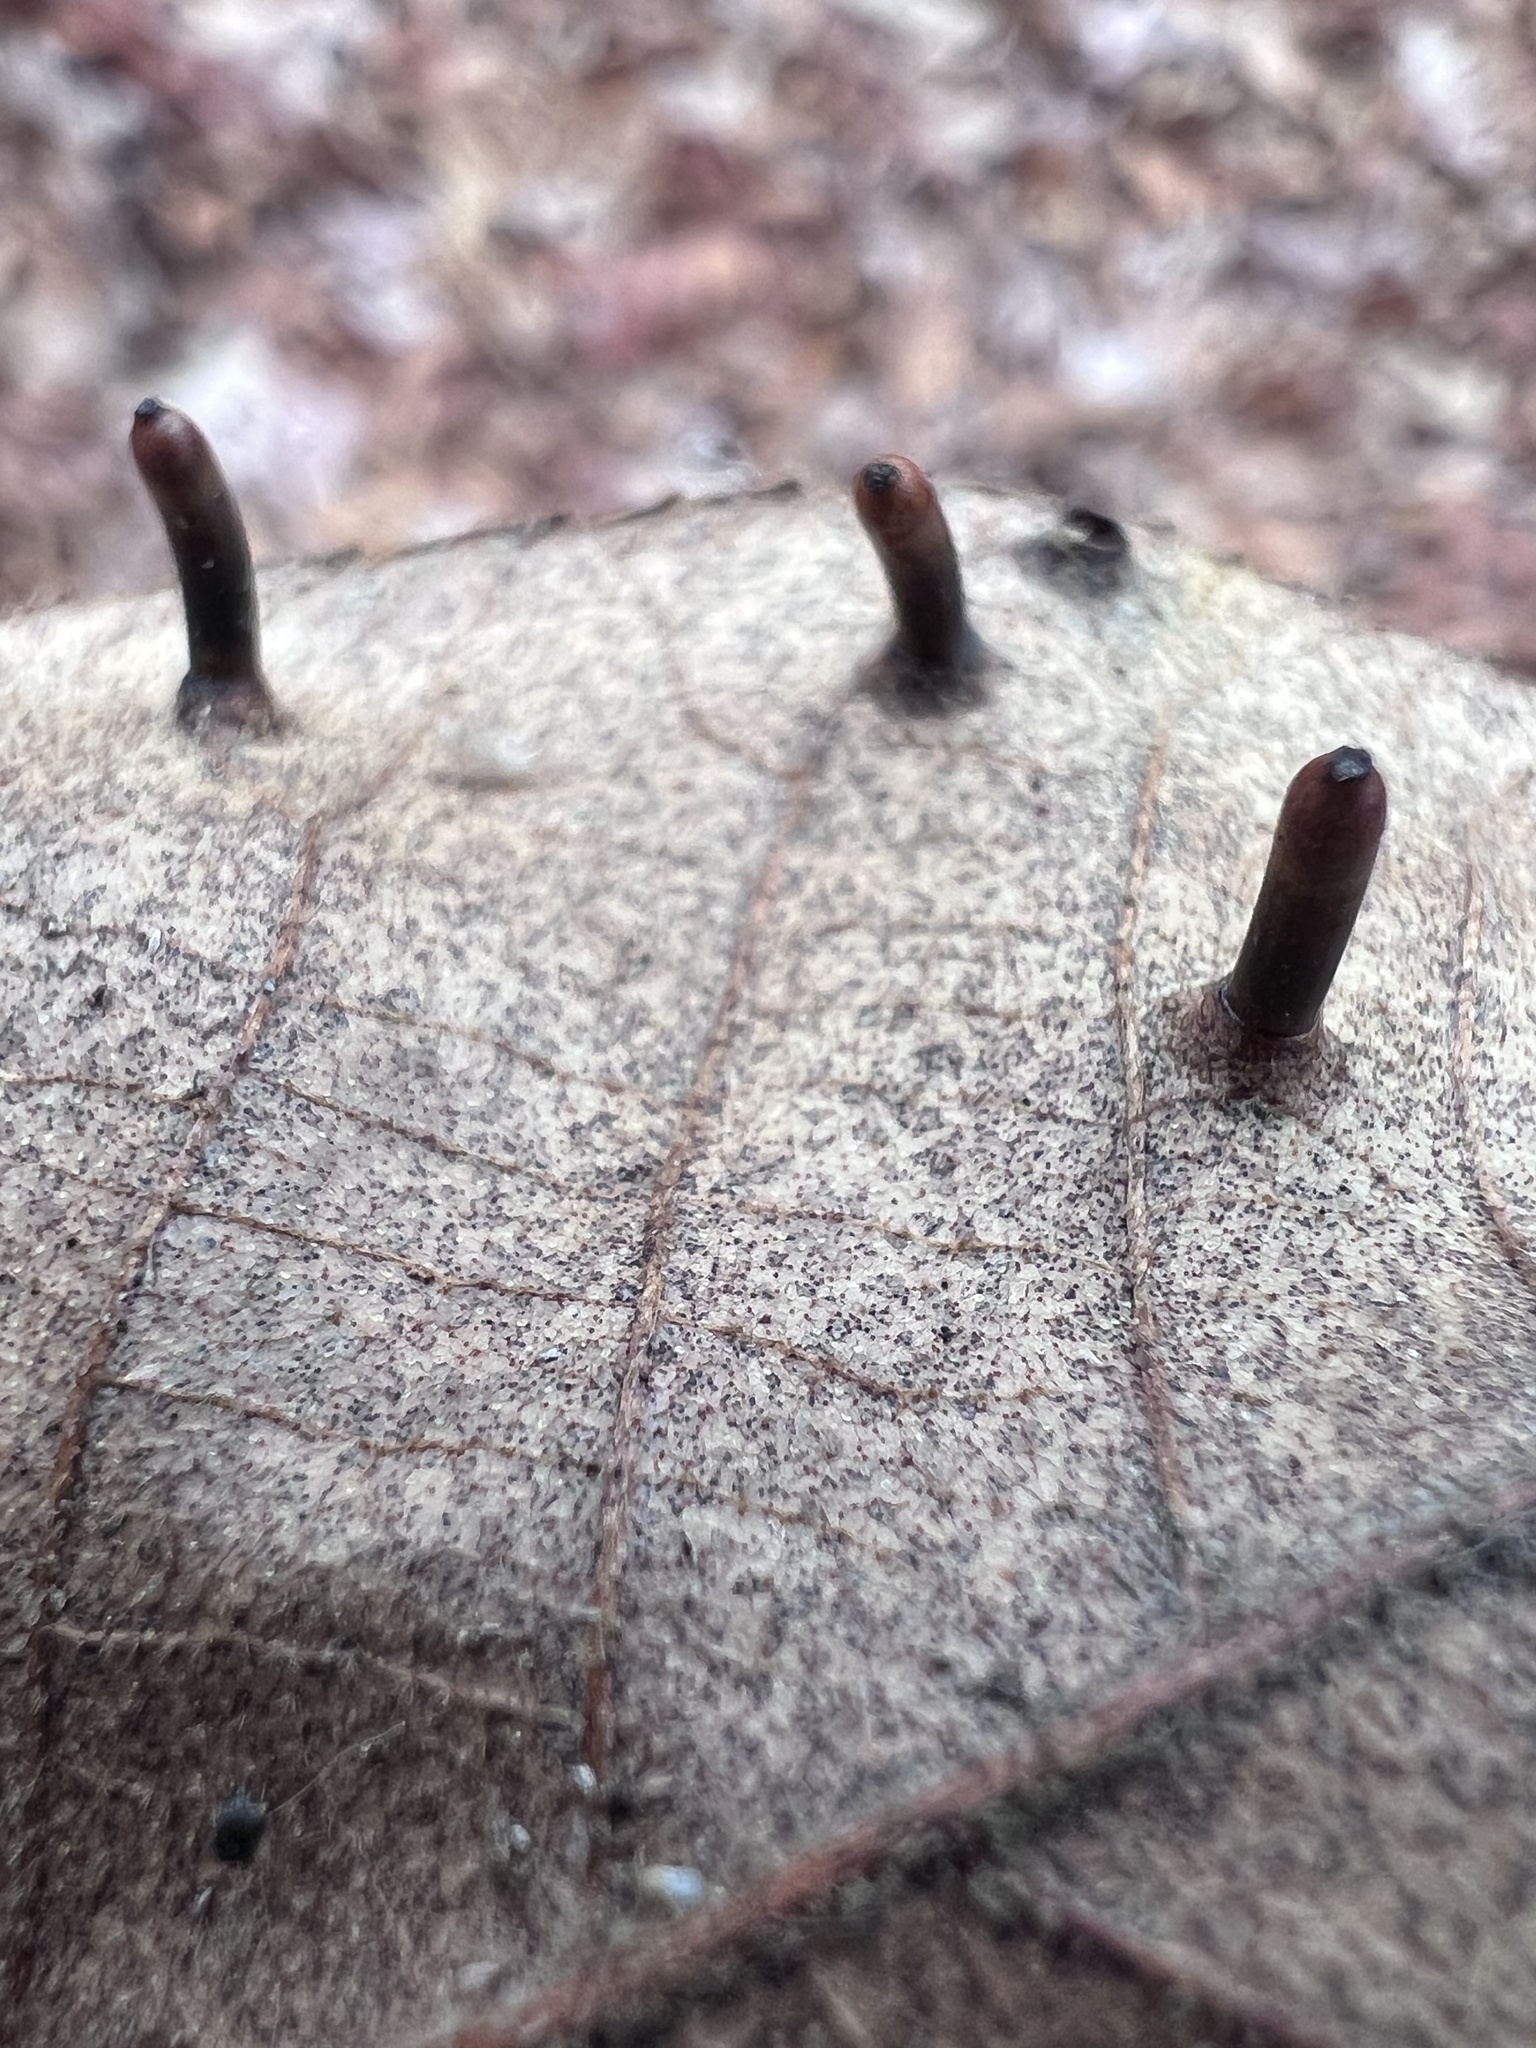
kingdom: Animalia
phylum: Arthropoda
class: Insecta
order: Diptera
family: Cecidomyiidae
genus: Caryomyia
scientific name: Caryomyia tubicola
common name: Hickory bullet gall midge
